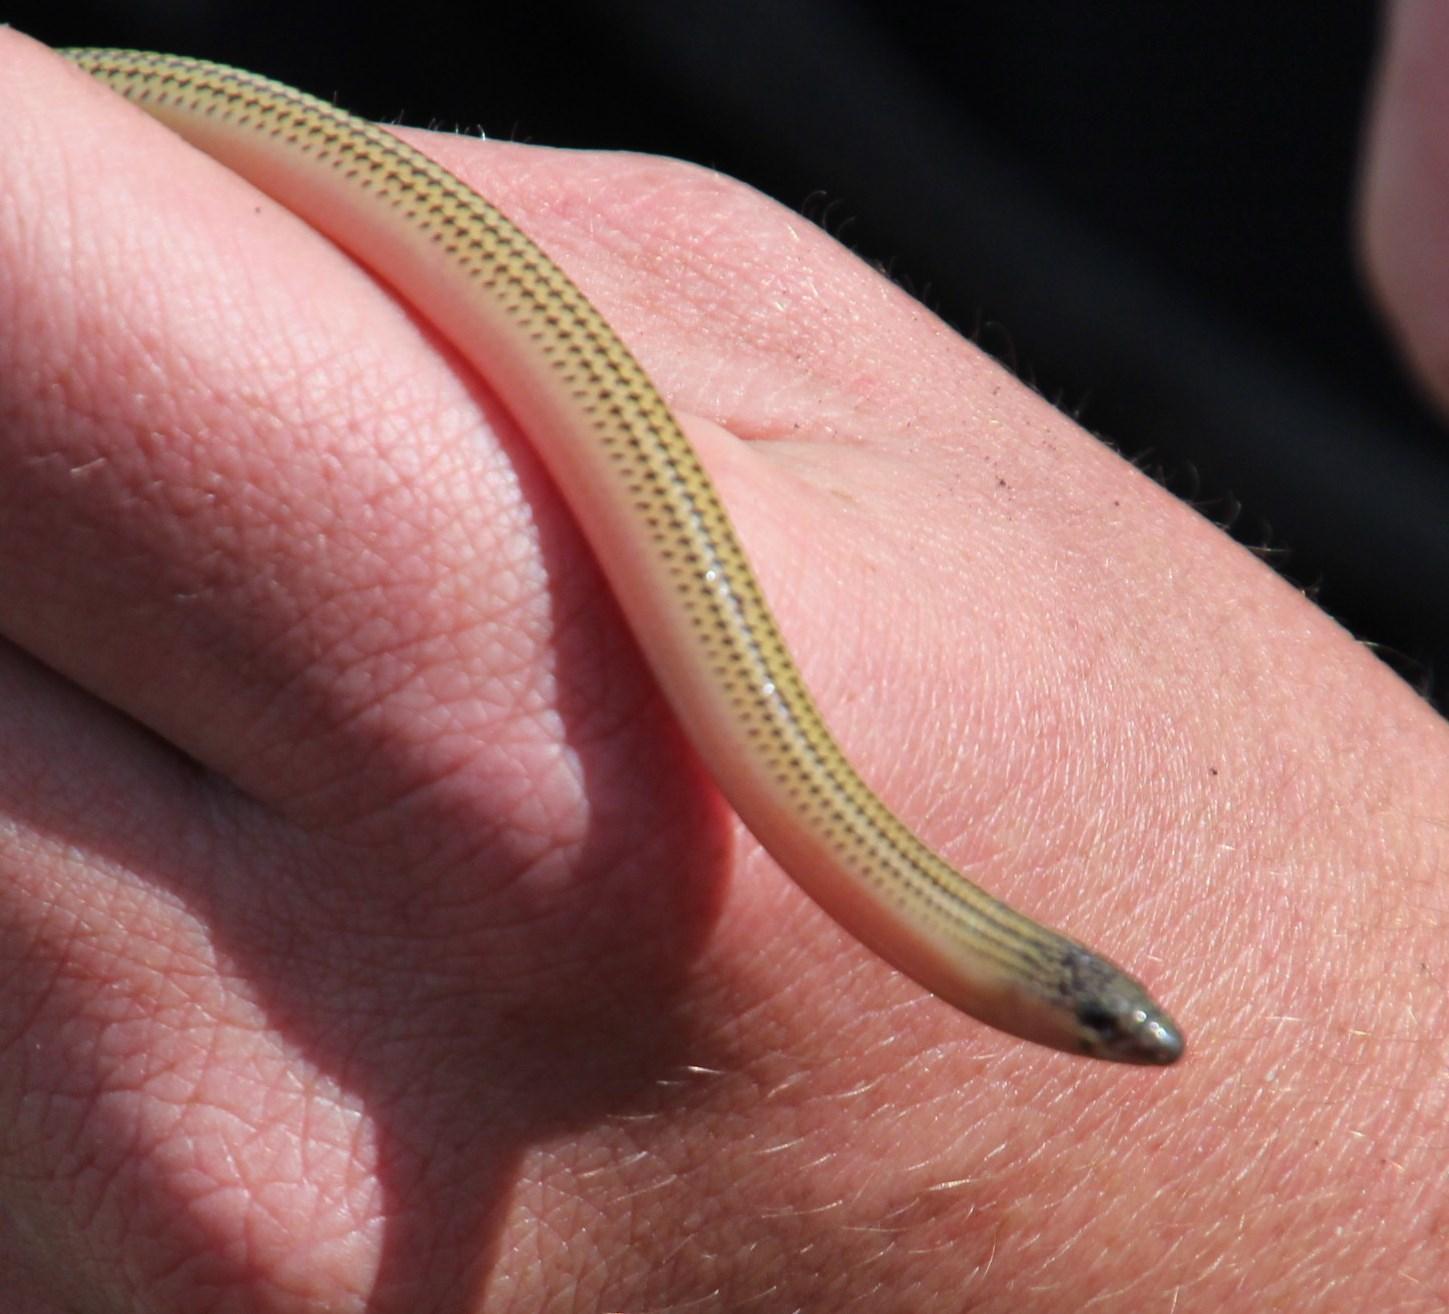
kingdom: Animalia
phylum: Chordata
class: Squamata
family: Scincidae
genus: Acontias
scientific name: Acontias meleagris
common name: Cape legless skink
